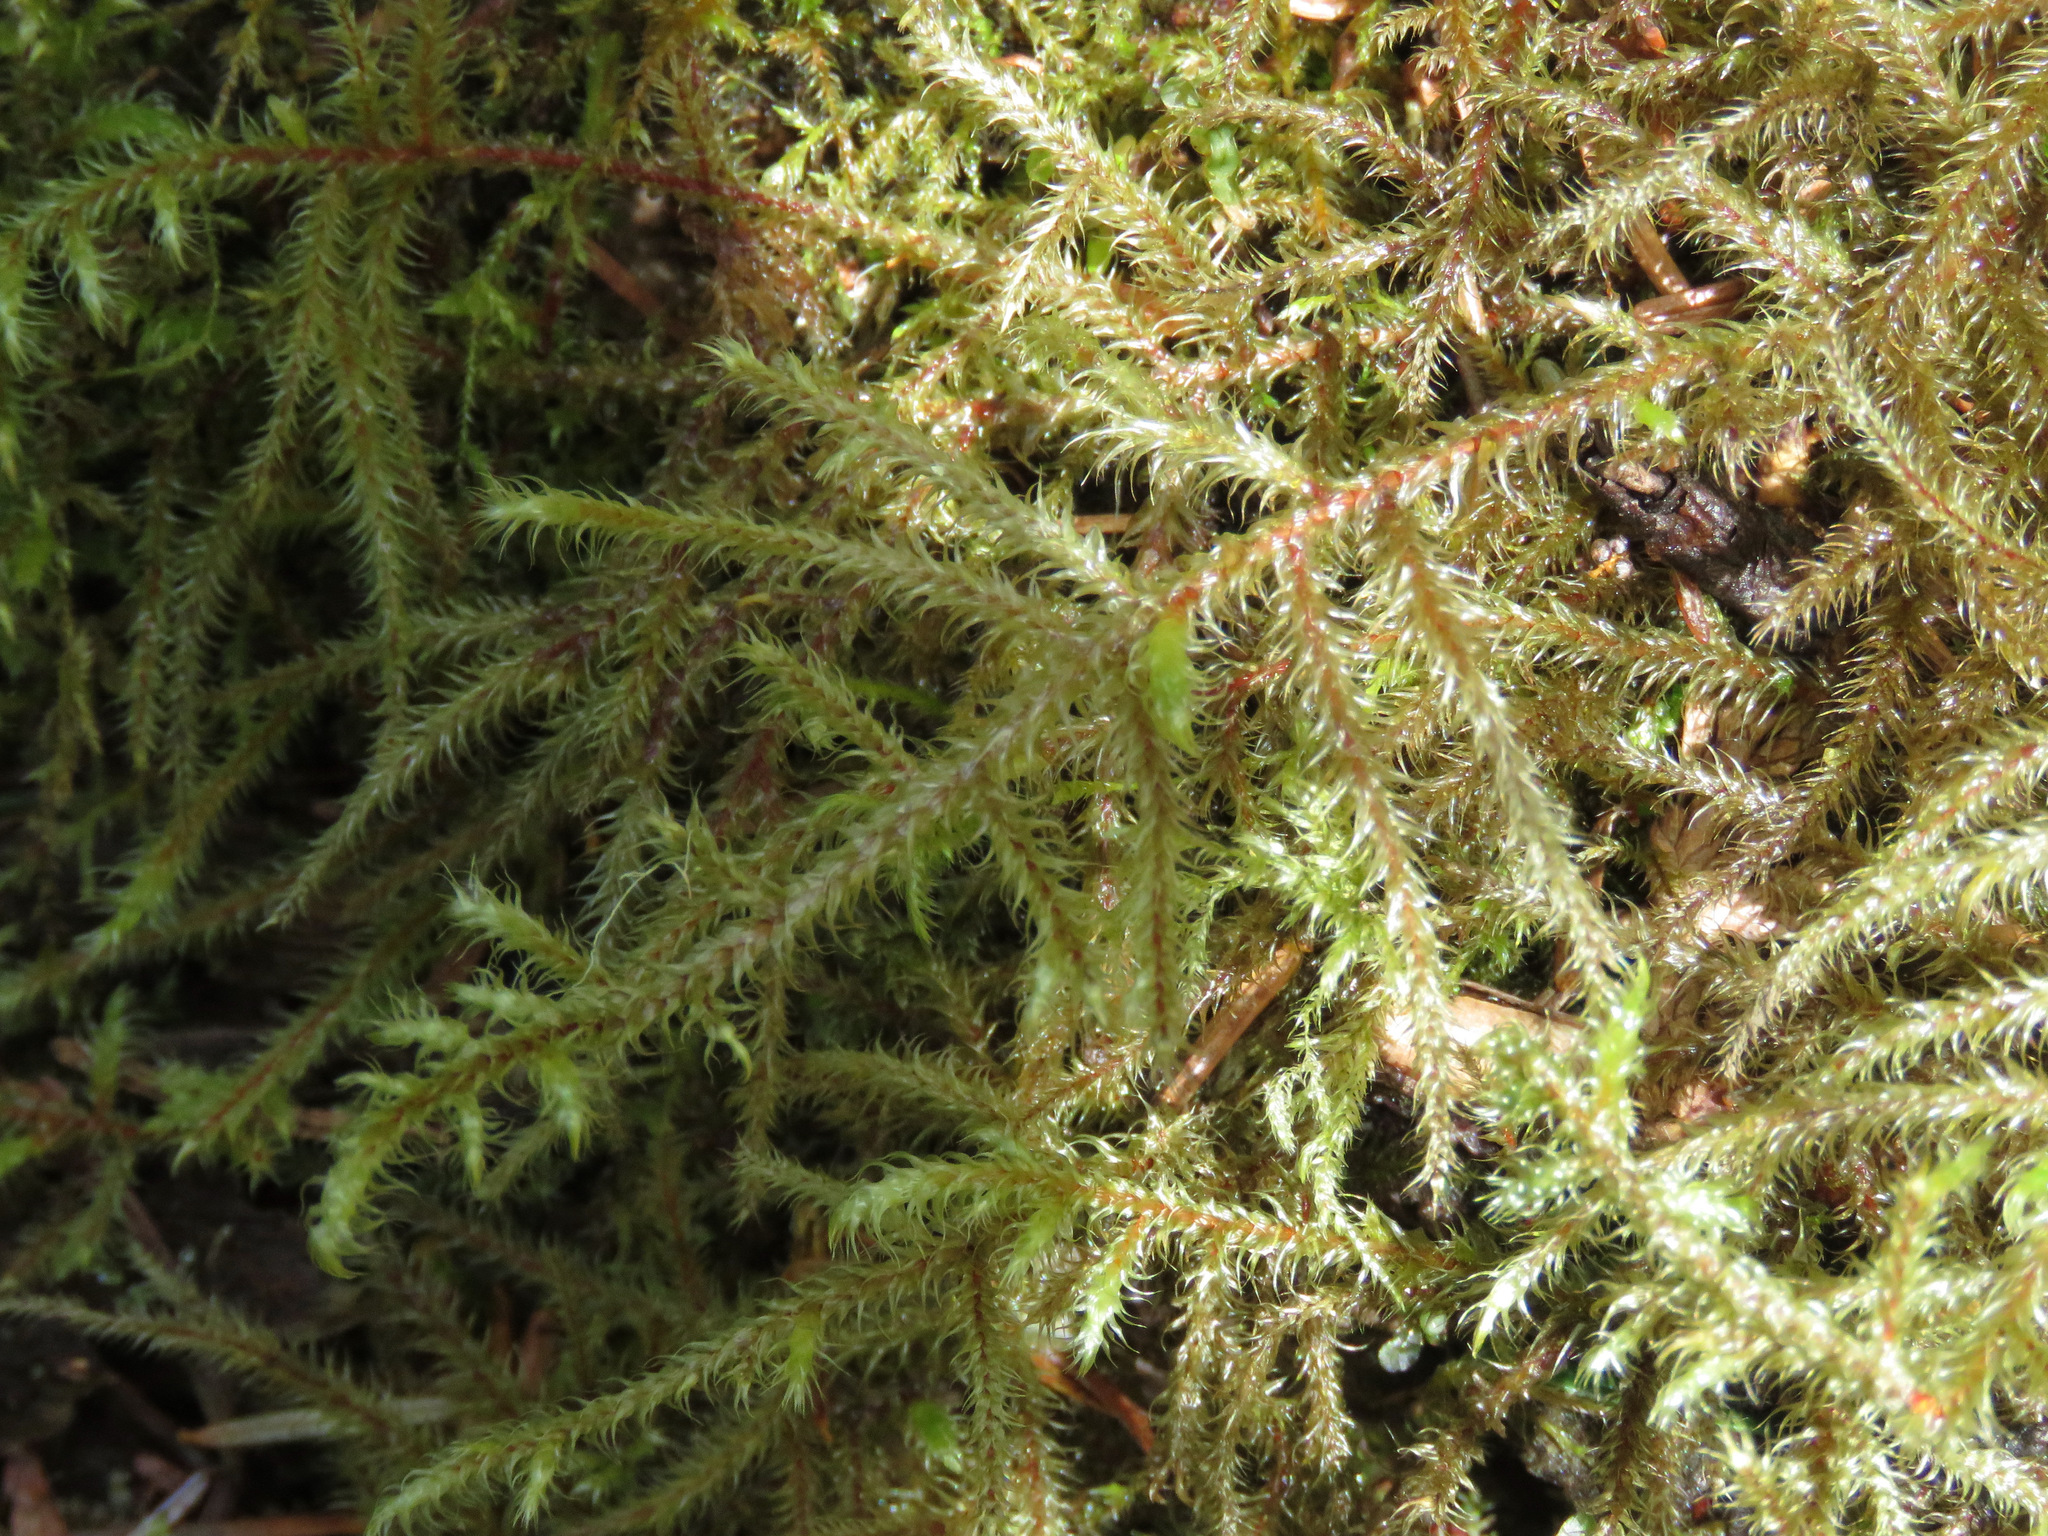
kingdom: Plantae
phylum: Bryophyta
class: Bryopsida
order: Hypnales
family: Hylocomiaceae
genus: Rhytidiadelphus
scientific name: Rhytidiadelphus loreus
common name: Lanky moss
